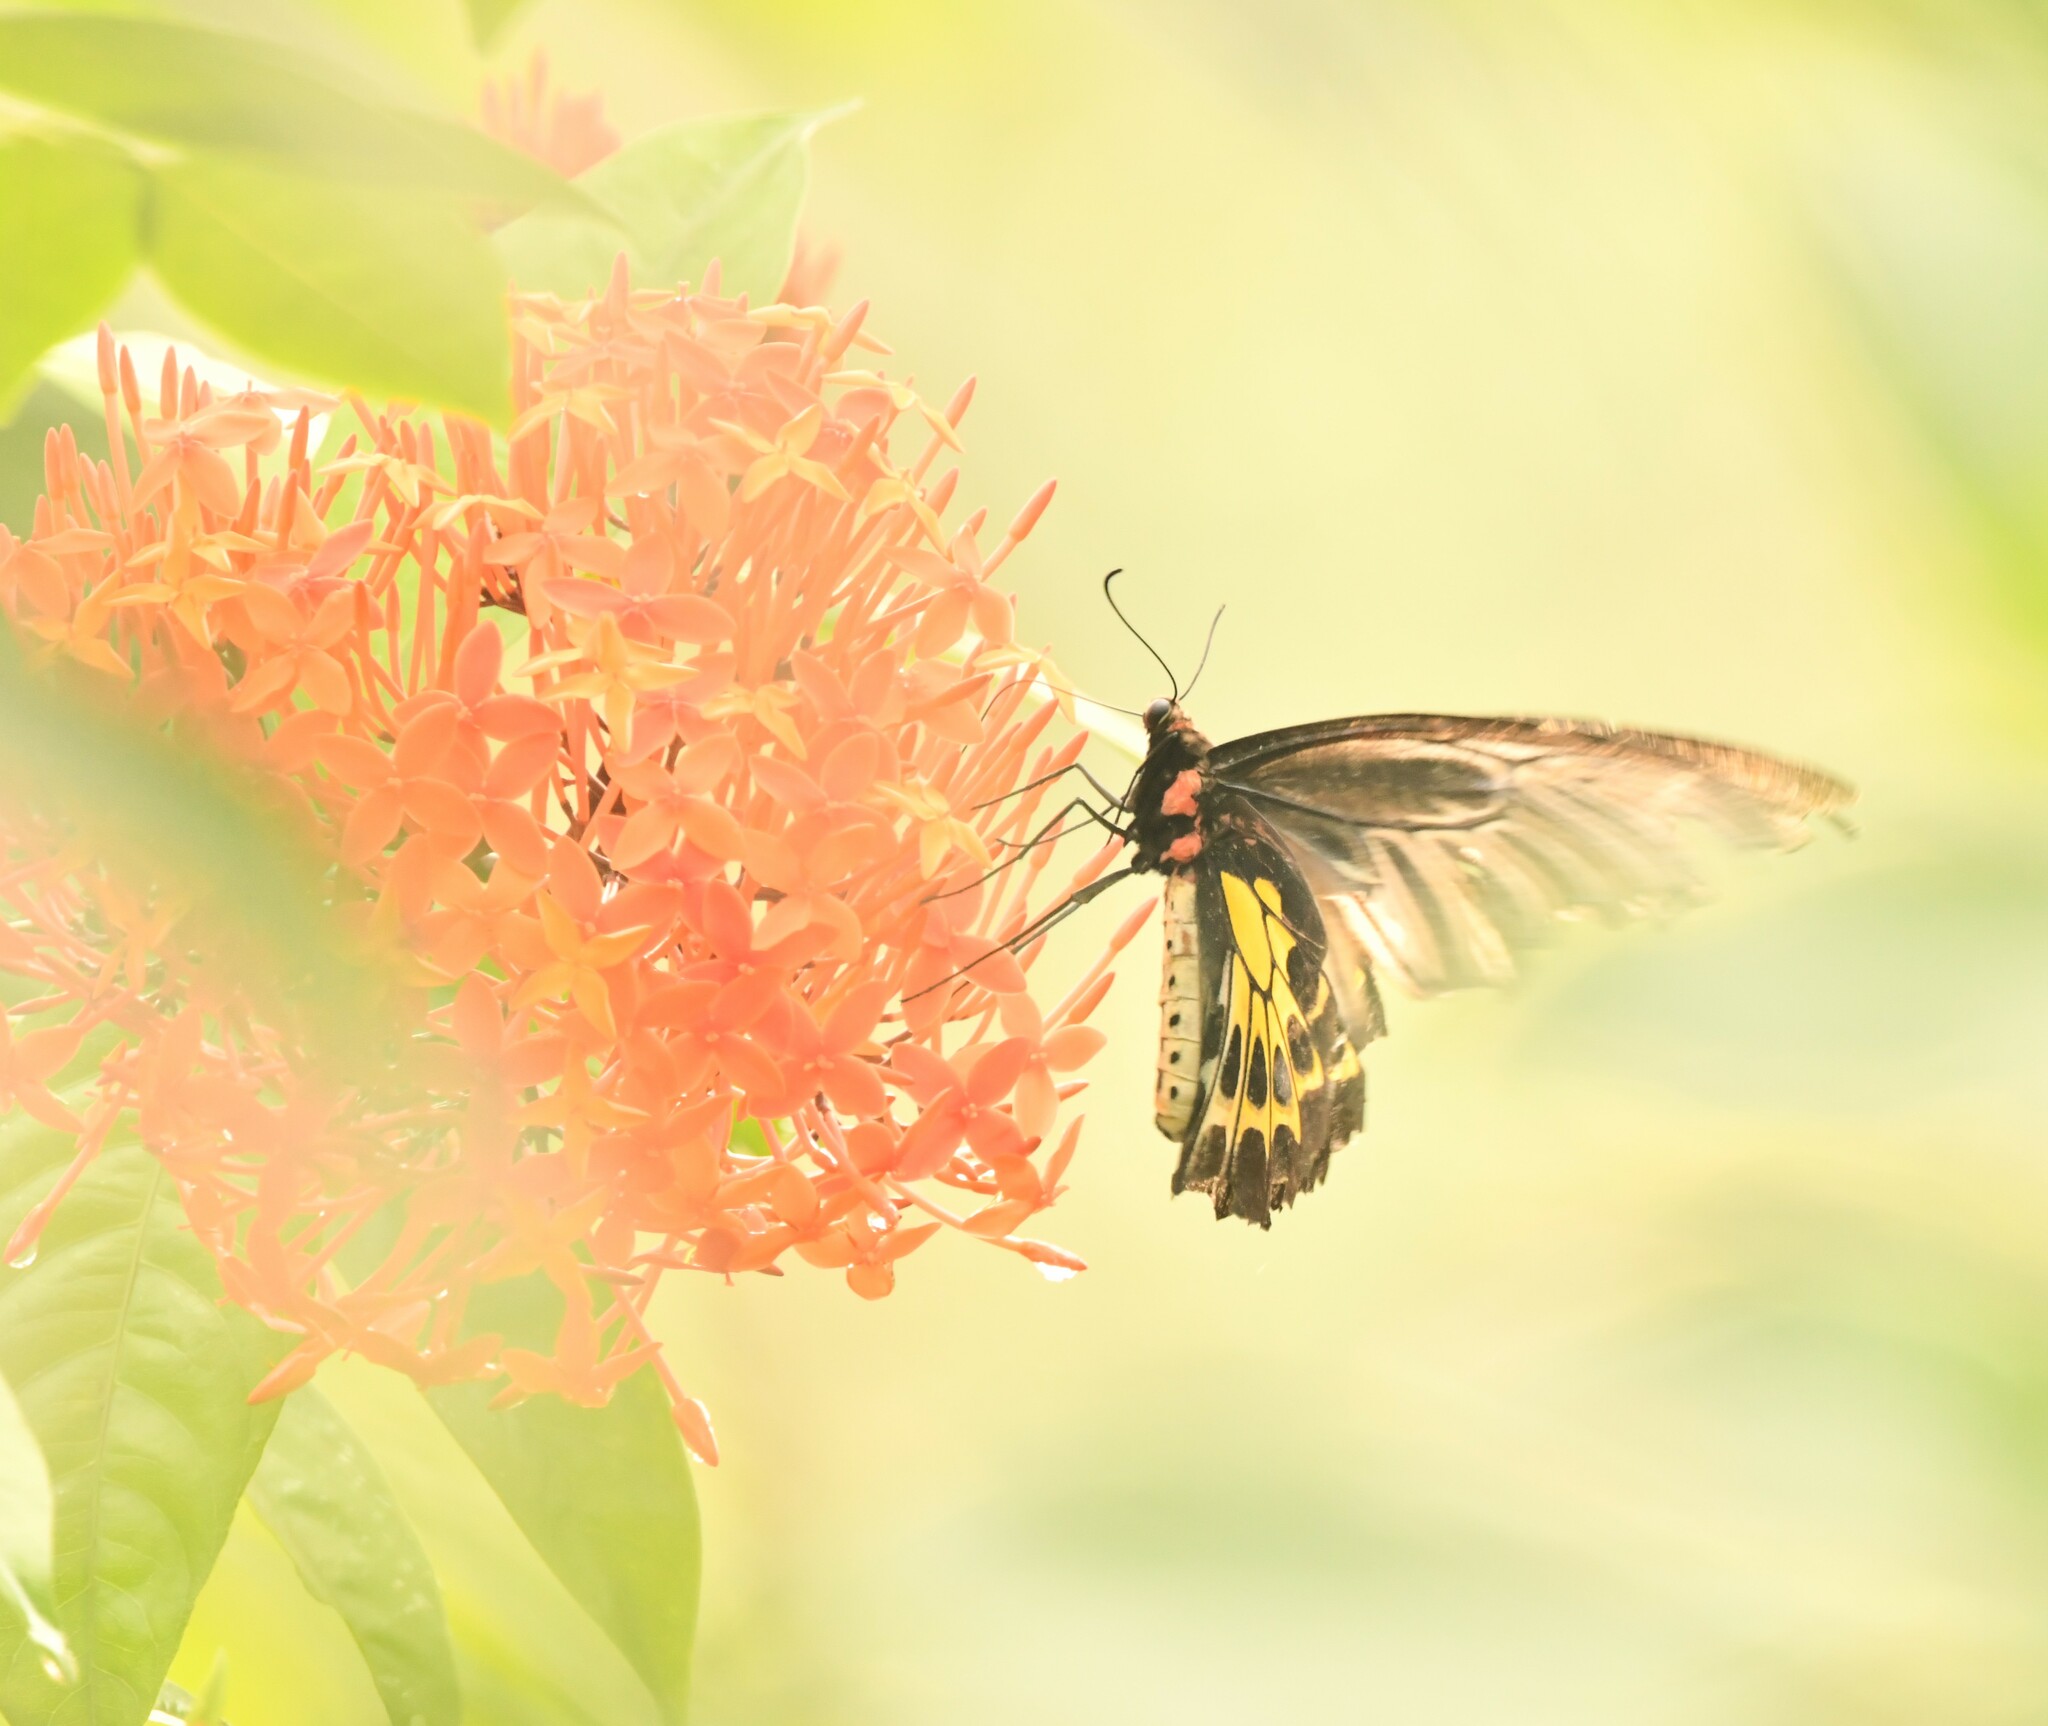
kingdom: Animalia
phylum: Arthropoda
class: Insecta
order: Lepidoptera
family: Papilionidae
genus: Troides
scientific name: Troides minos
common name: Malabar birdwing
